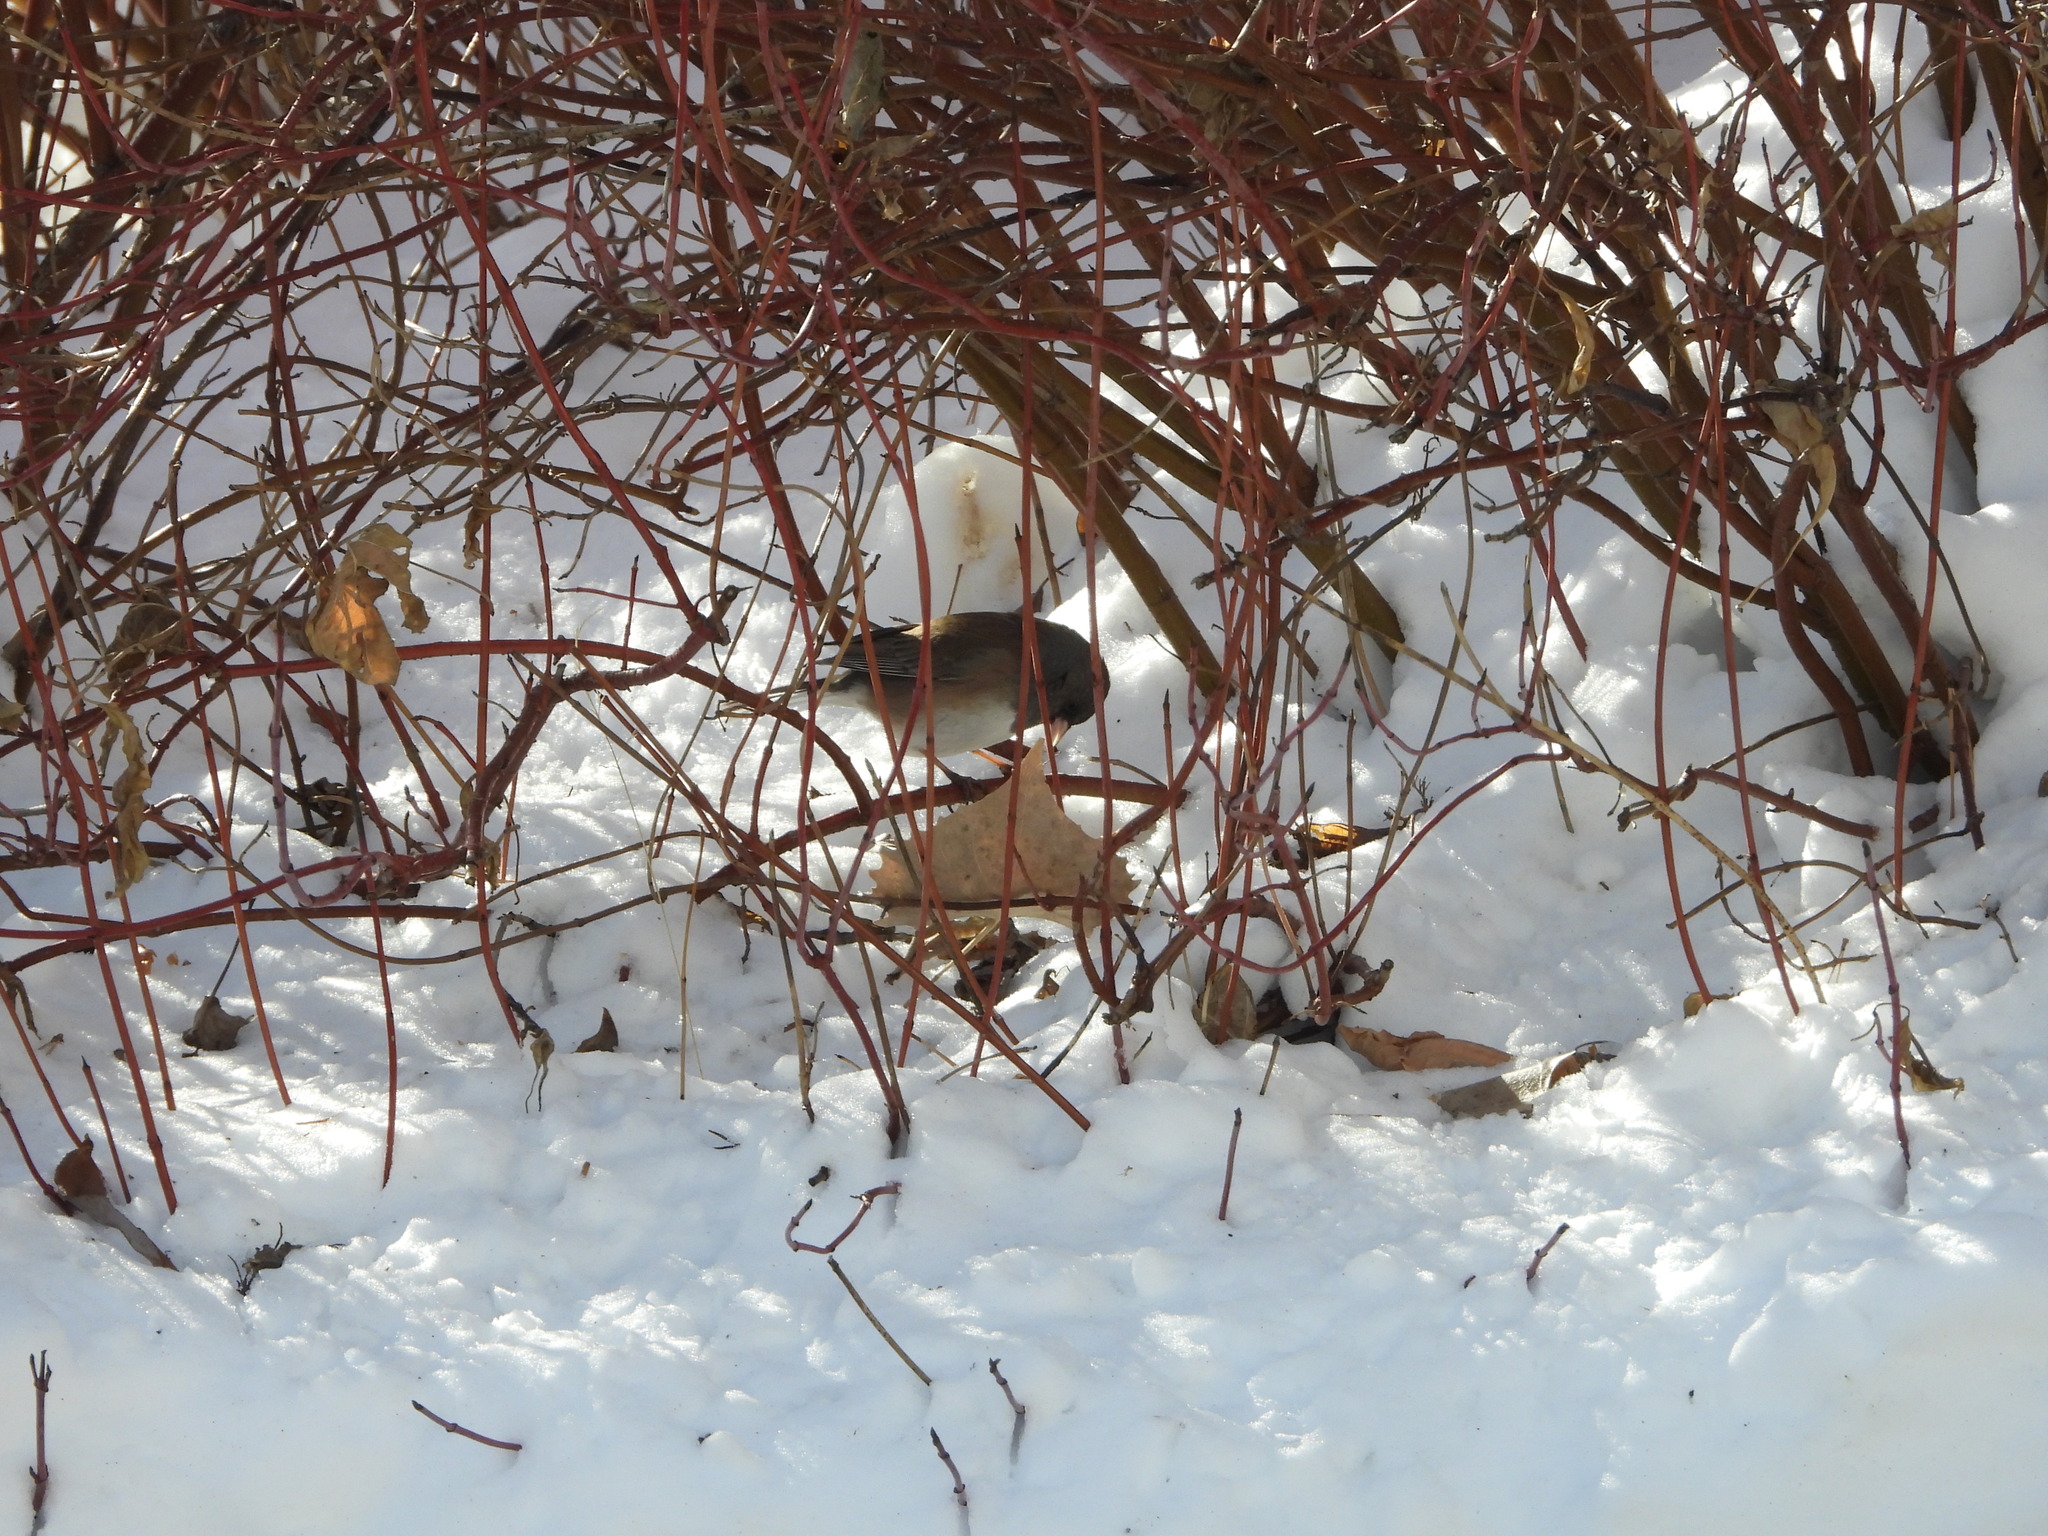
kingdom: Animalia
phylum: Chordata
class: Aves
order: Passeriformes
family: Passerellidae
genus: Junco
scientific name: Junco hyemalis
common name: Dark-eyed junco
